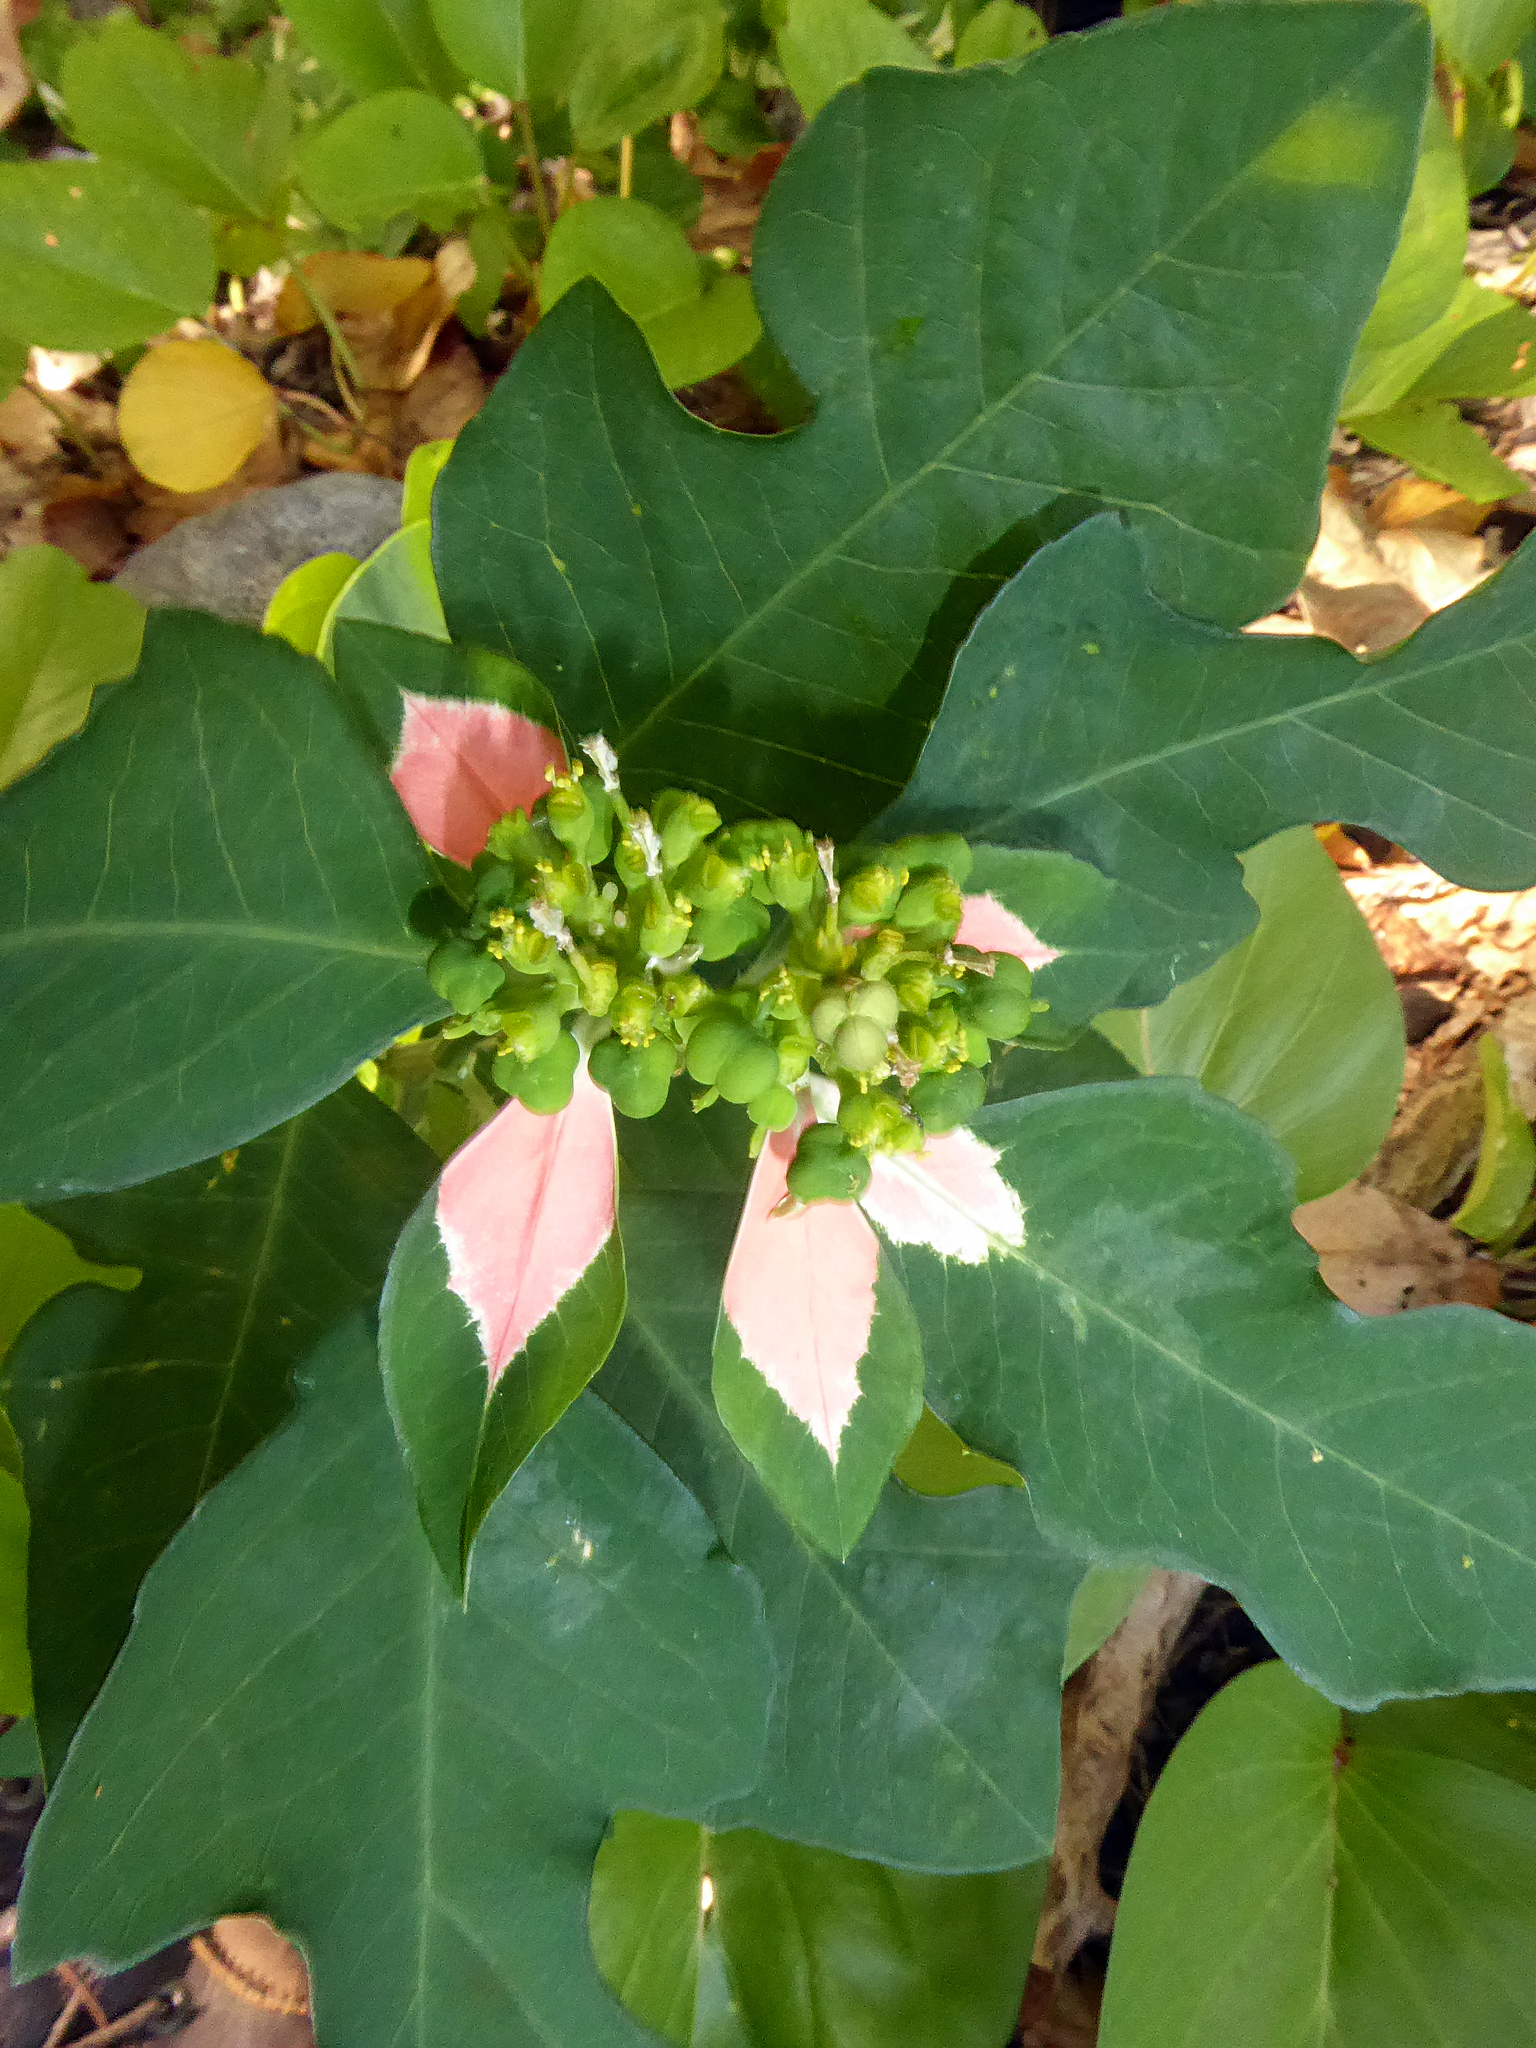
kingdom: Plantae
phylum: Tracheophyta
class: Magnoliopsida
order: Malpighiales
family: Euphorbiaceae
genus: Euphorbia
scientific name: Euphorbia heterophylla
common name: Mexican fireplant
